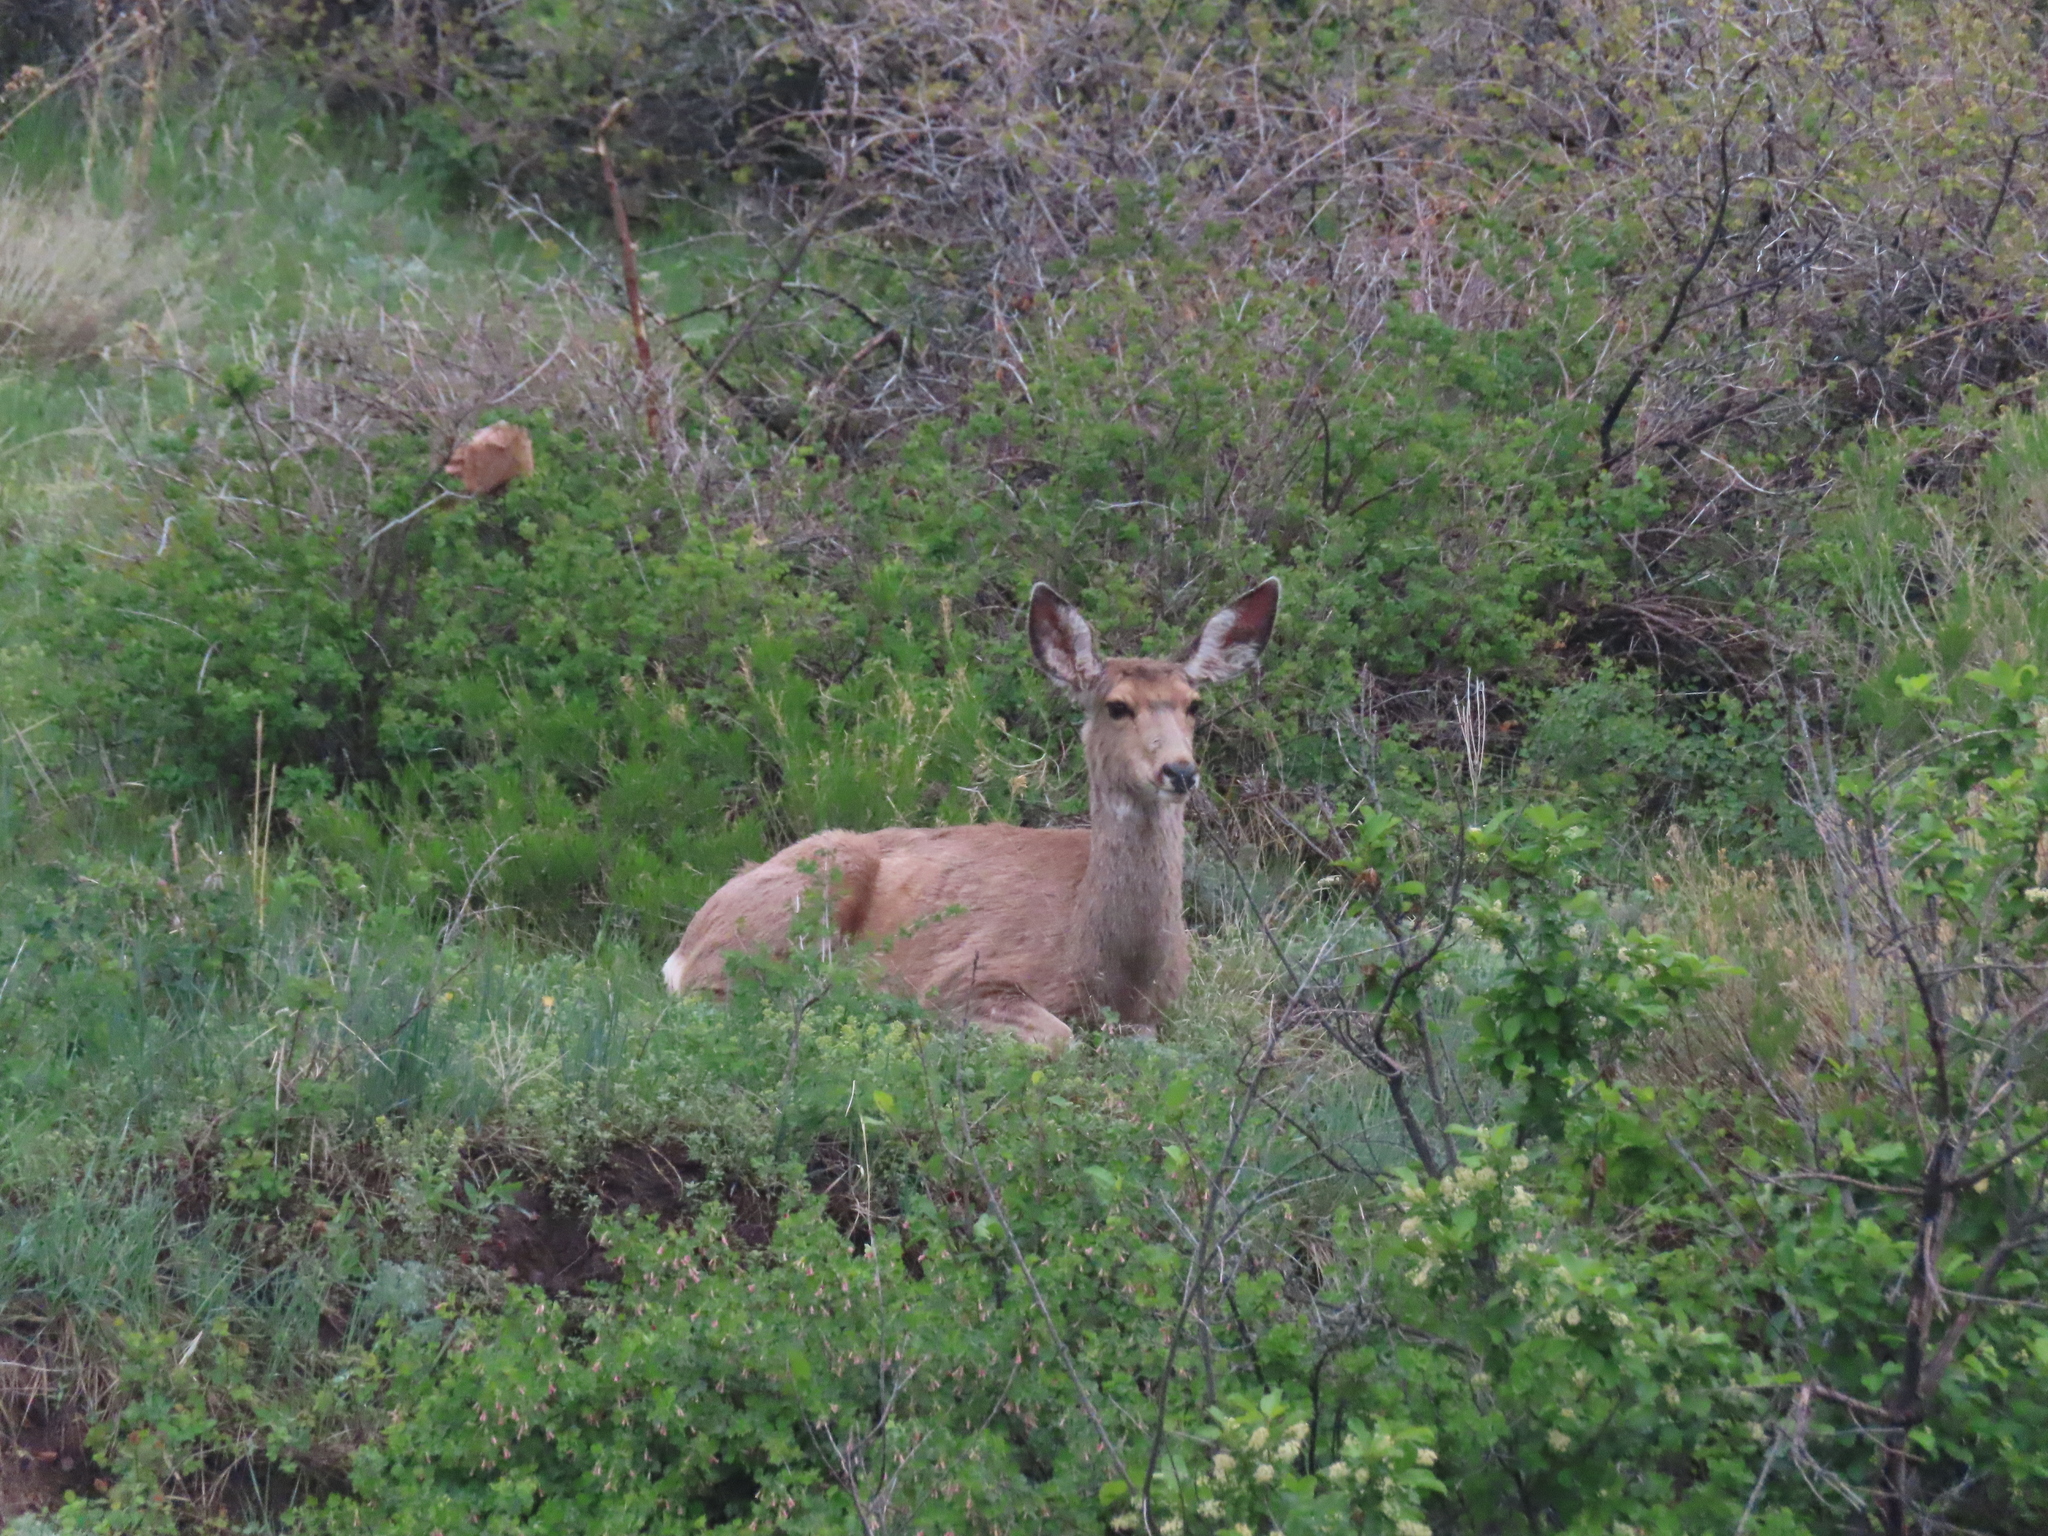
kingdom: Animalia
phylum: Chordata
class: Mammalia
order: Artiodactyla
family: Cervidae
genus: Odocoileus
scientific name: Odocoileus hemionus
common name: Mule deer
